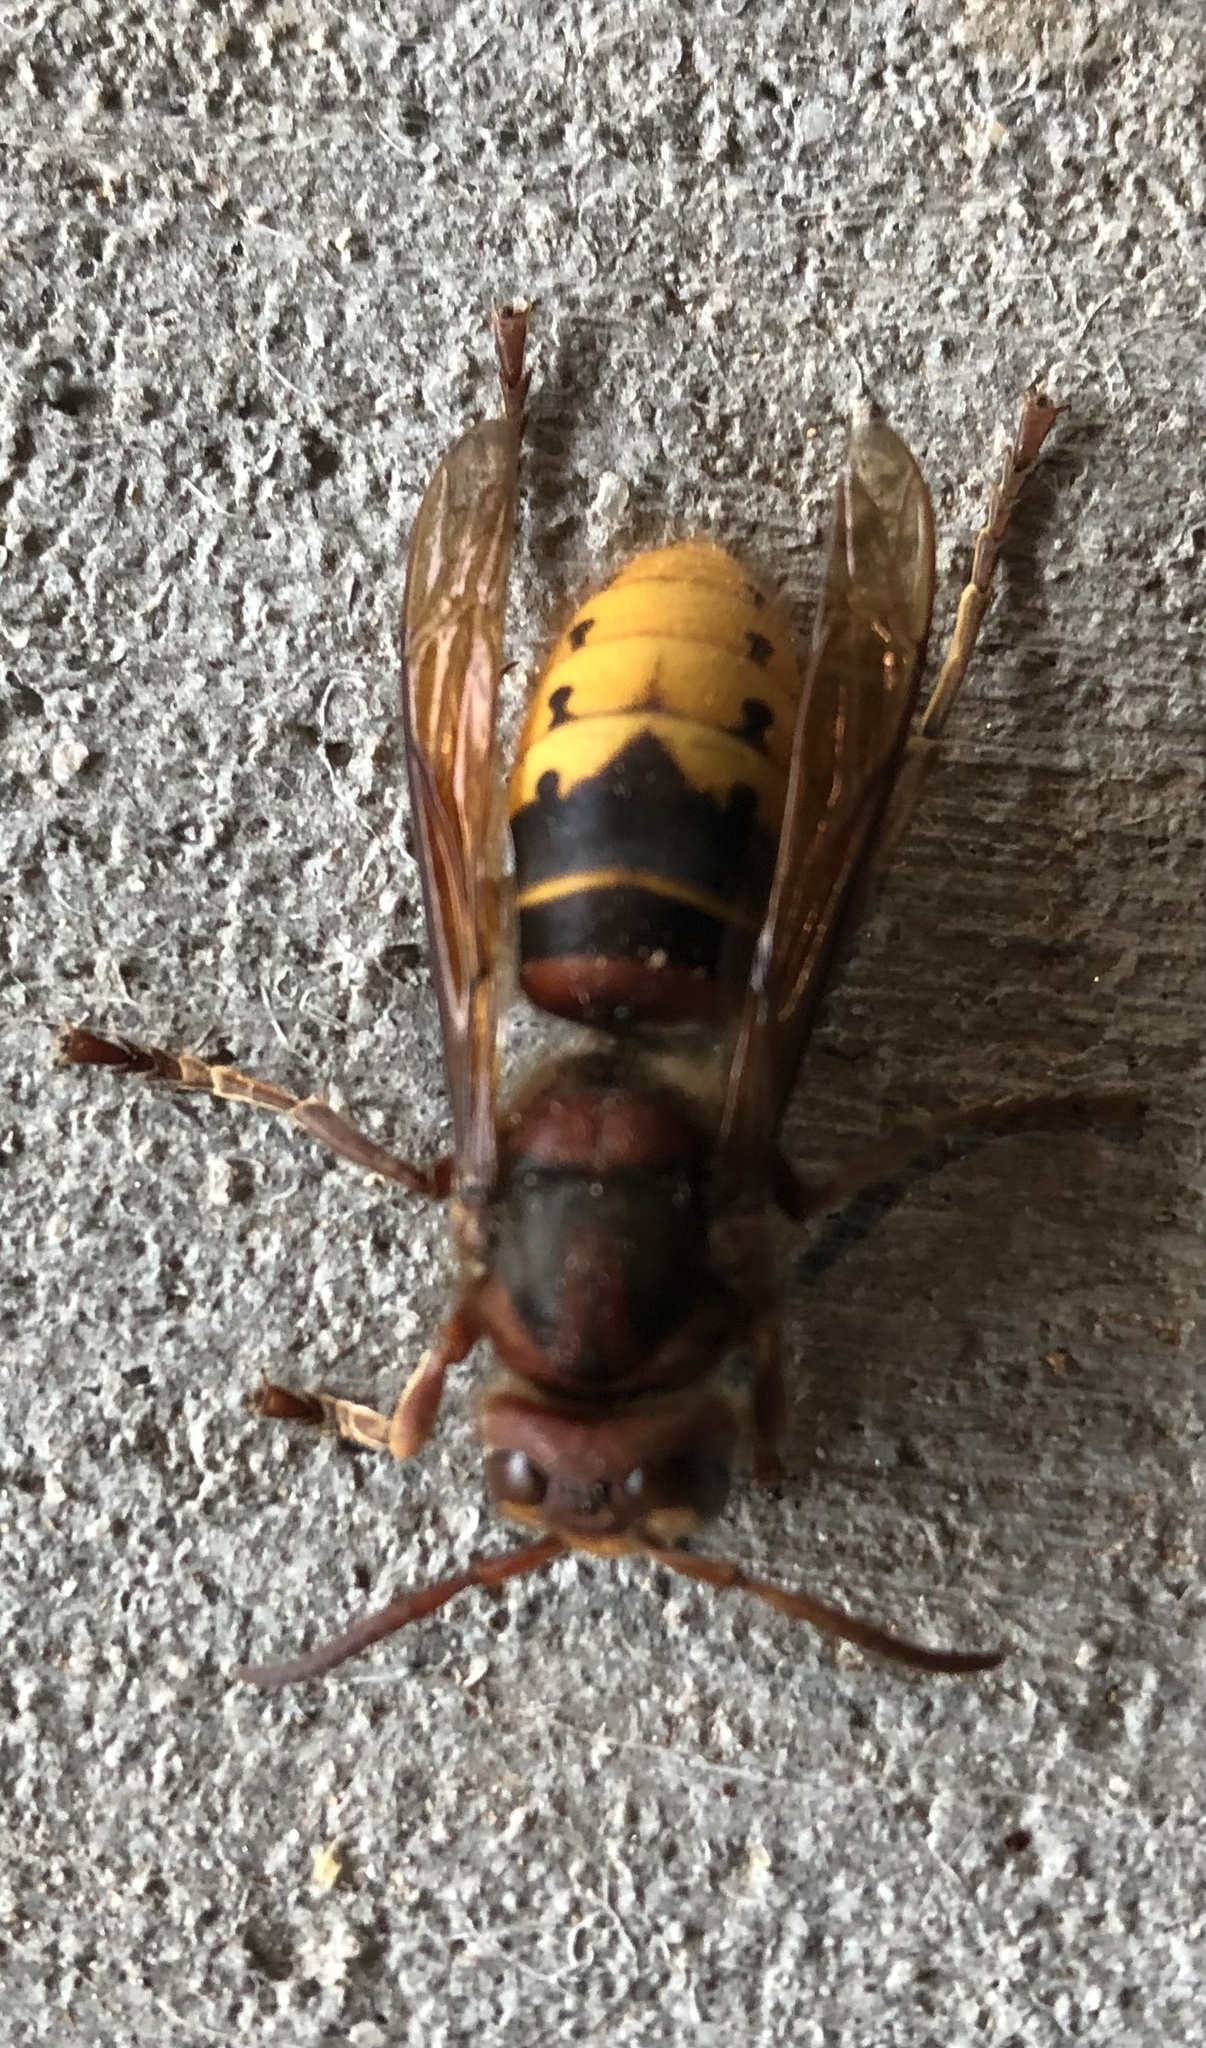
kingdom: Animalia
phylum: Arthropoda
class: Insecta
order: Hymenoptera
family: Vespidae
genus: Vespa
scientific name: Vespa crabro
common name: Hornet
